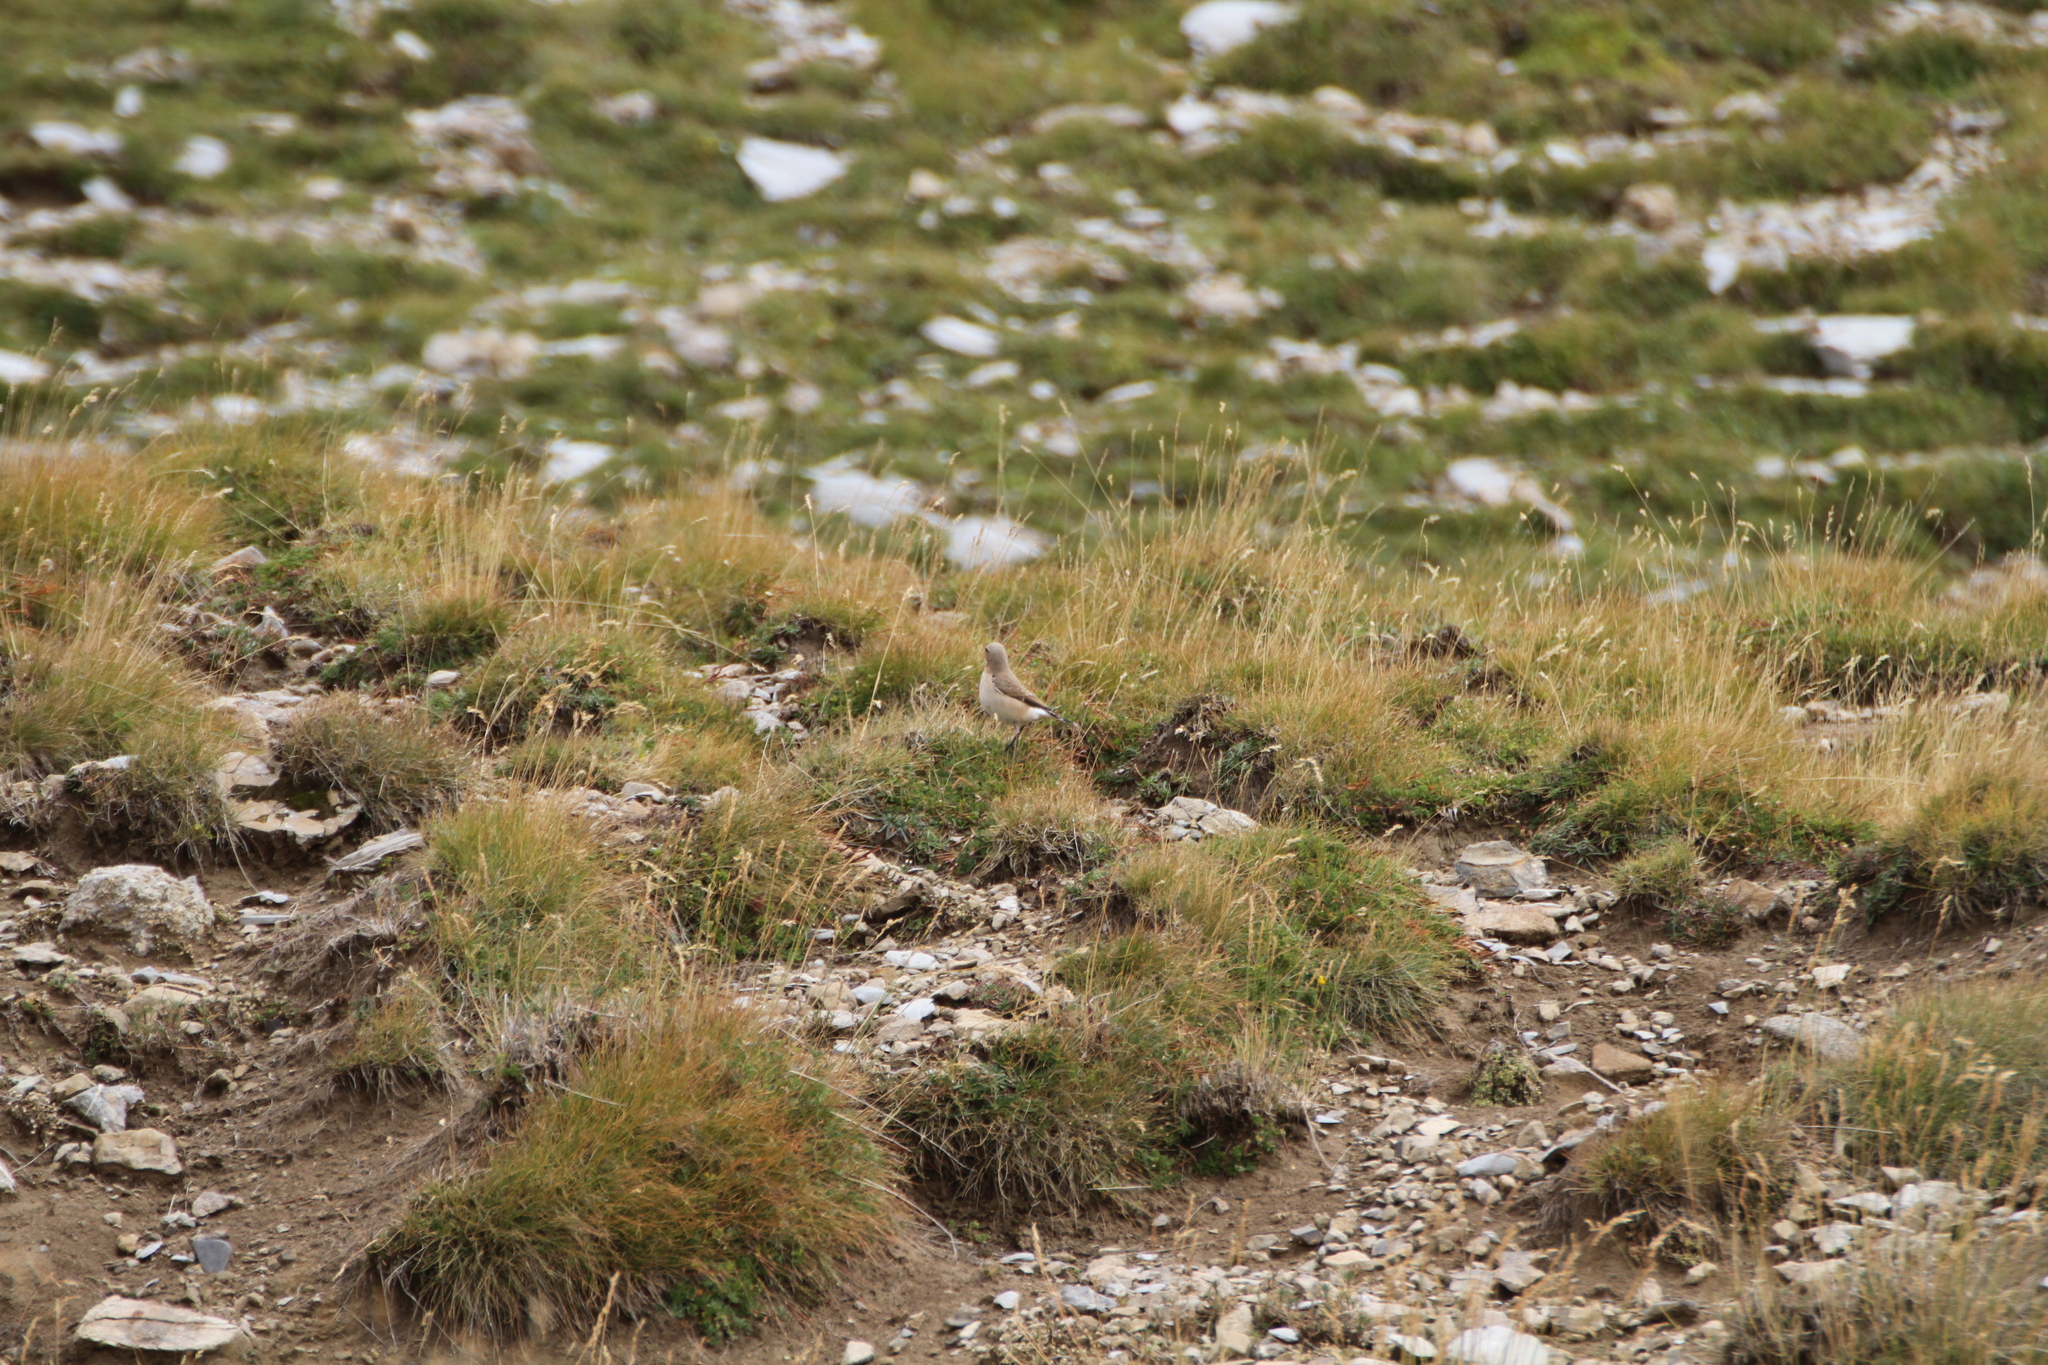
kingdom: Animalia
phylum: Chordata
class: Aves
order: Passeriformes
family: Muscicapidae
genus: Oenanthe
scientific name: Oenanthe oenanthe
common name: Northern wheatear
